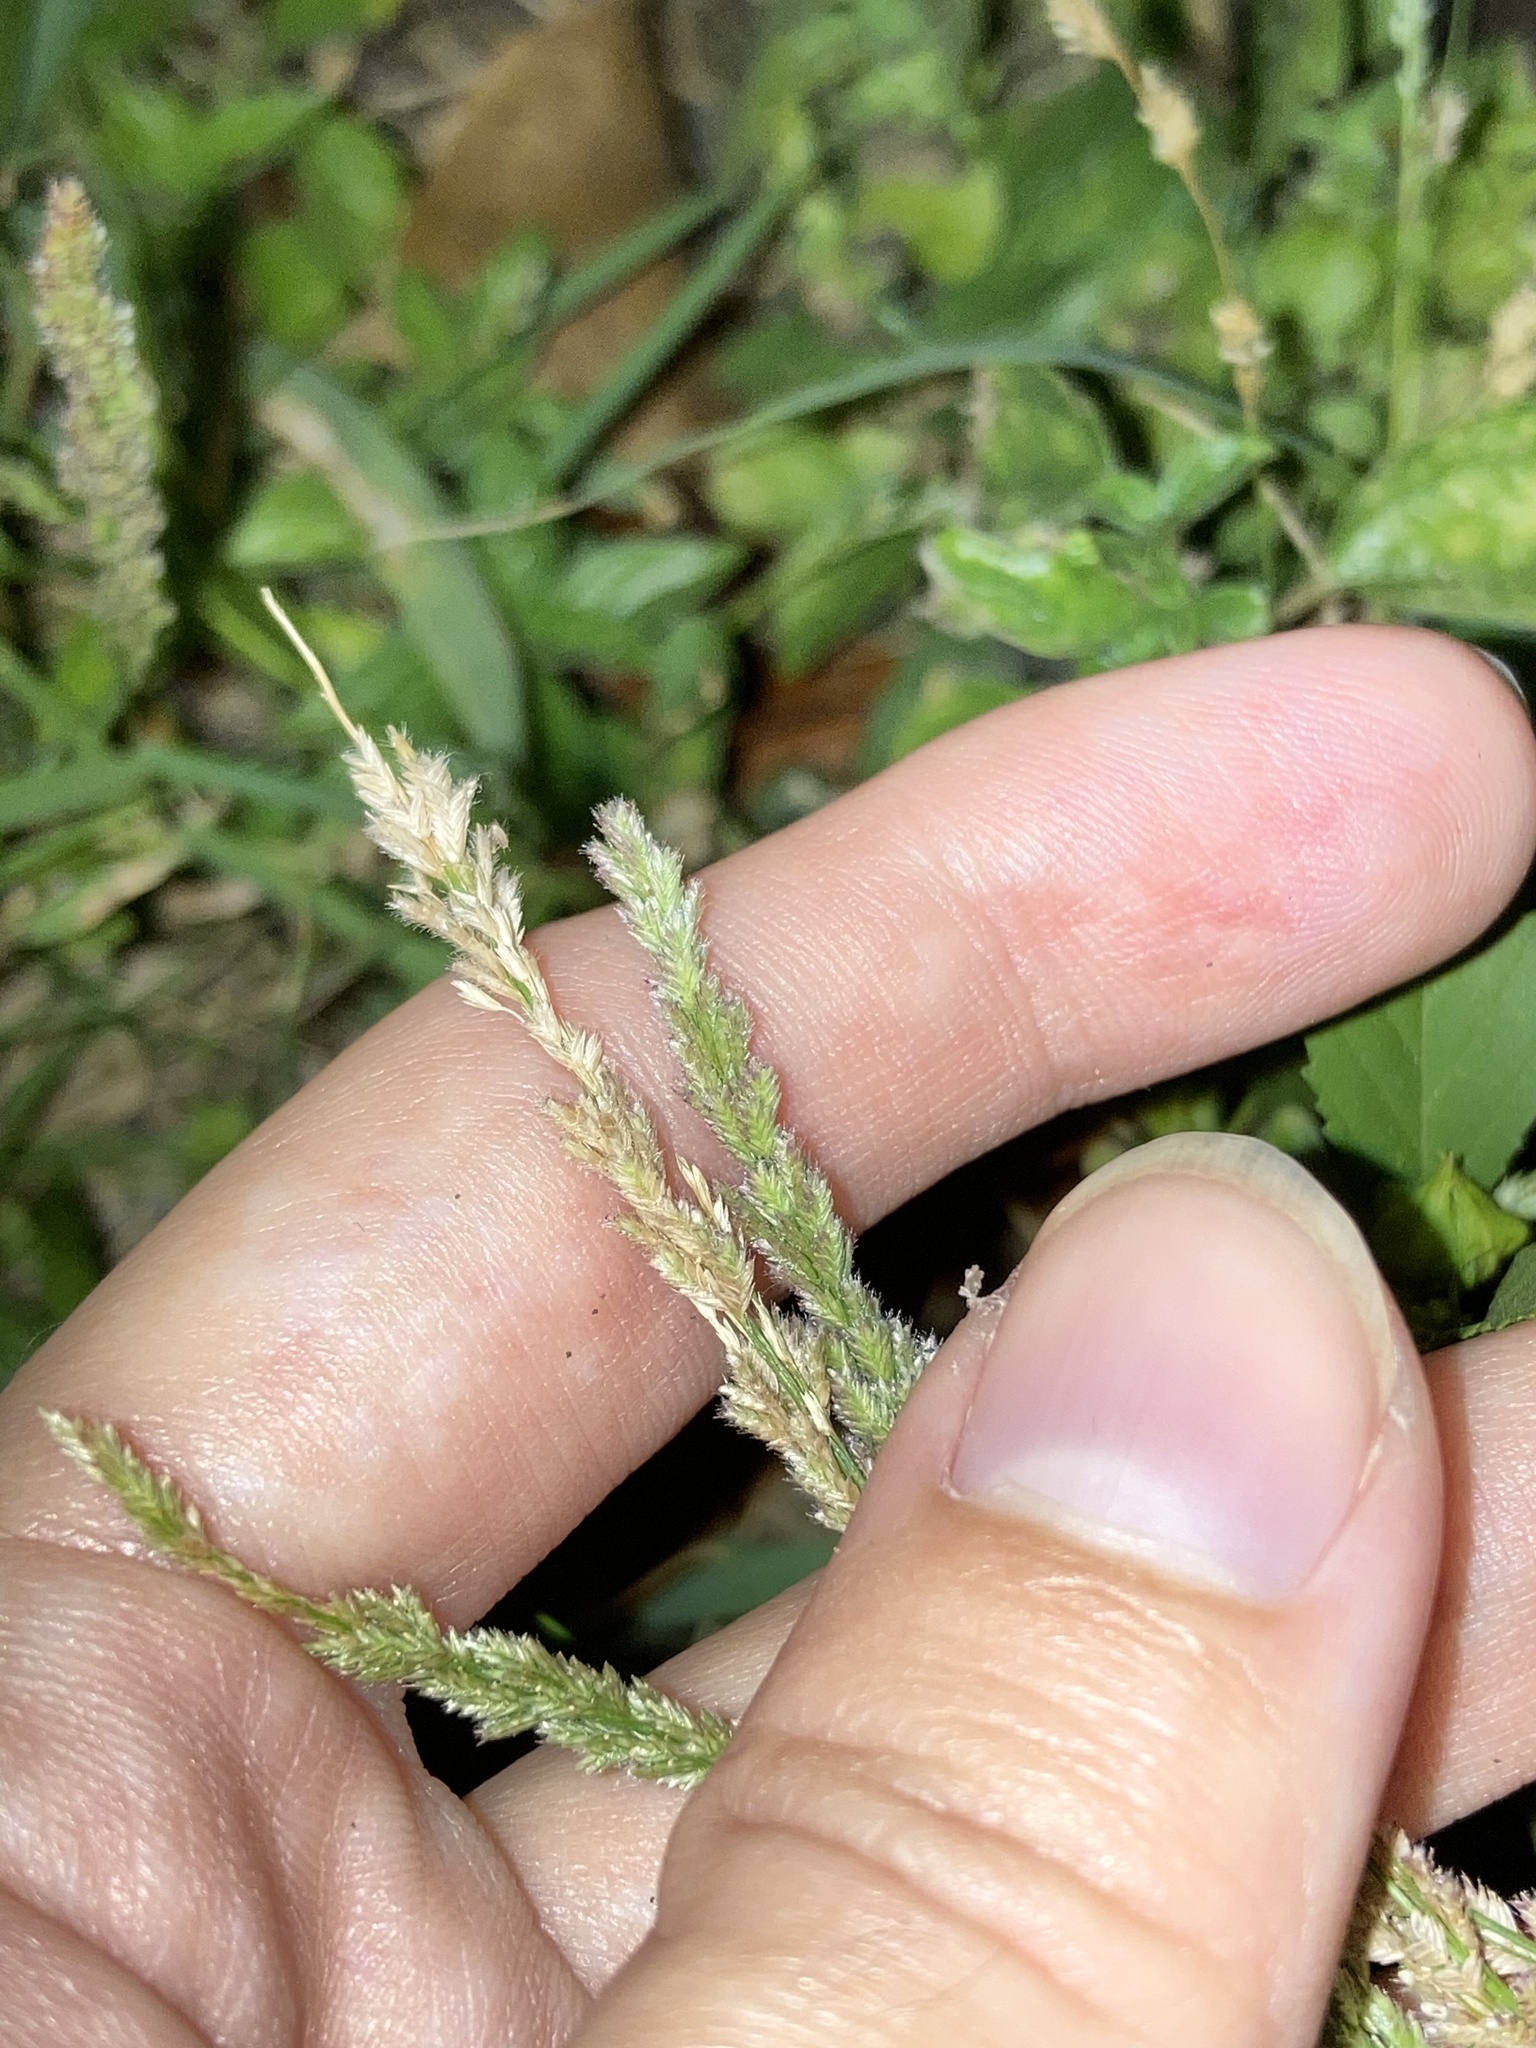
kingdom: Plantae
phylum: Tracheophyta
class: Liliopsida
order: Poales
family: Poaceae
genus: Eragrostis
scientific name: Eragrostis ciliaris
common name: Gophertail lovegrass
